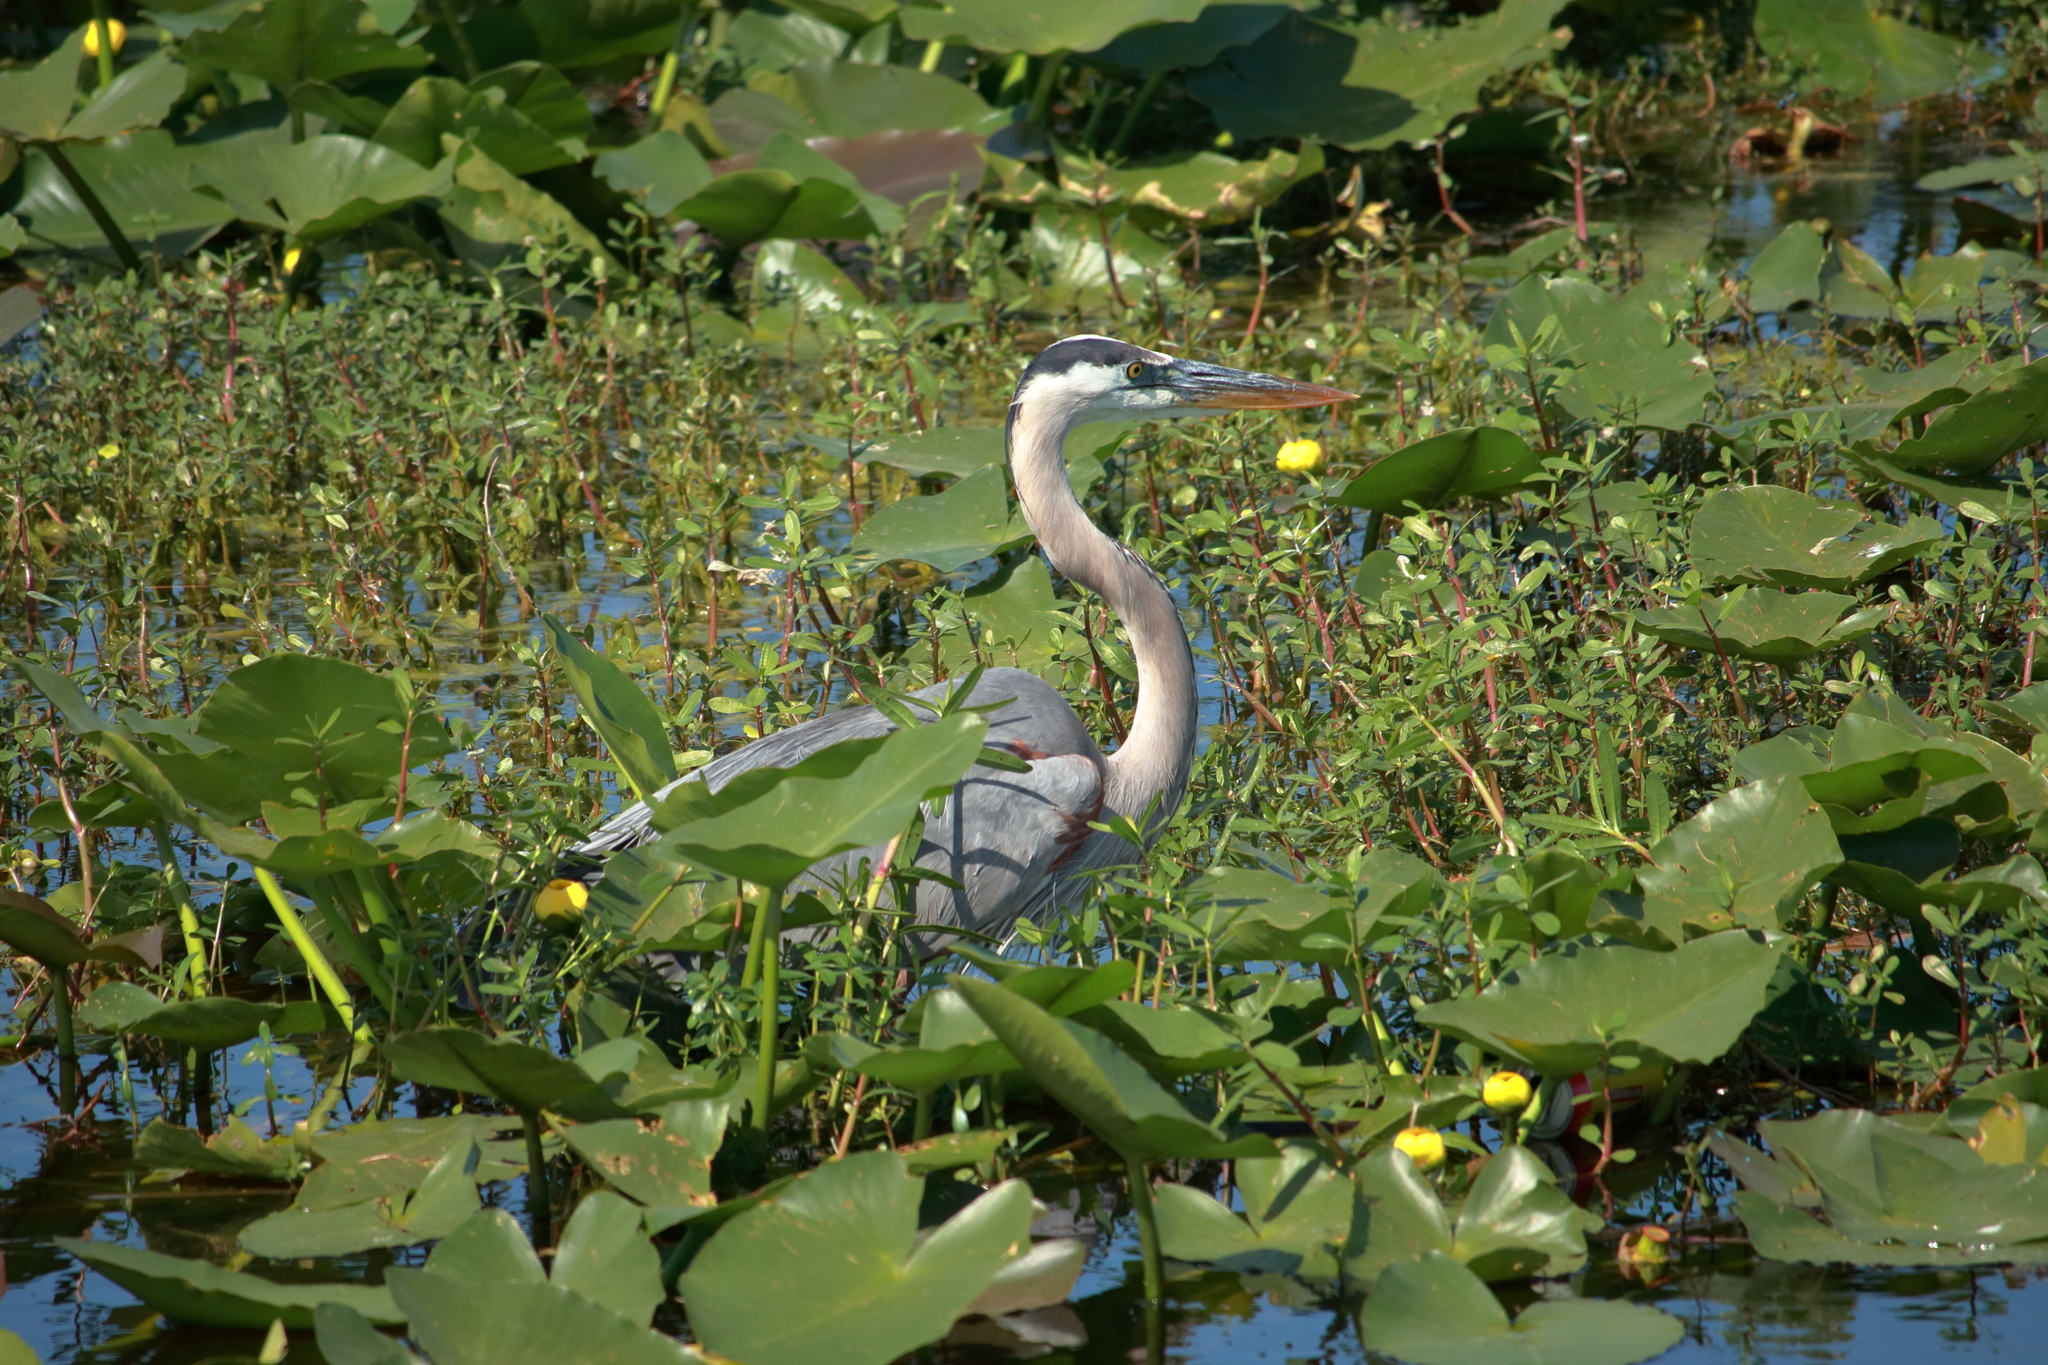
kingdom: Animalia
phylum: Chordata
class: Aves
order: Pelecaniformes
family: Ardeidae
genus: Ardea
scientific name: Ardea herodias
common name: Great blue heron
